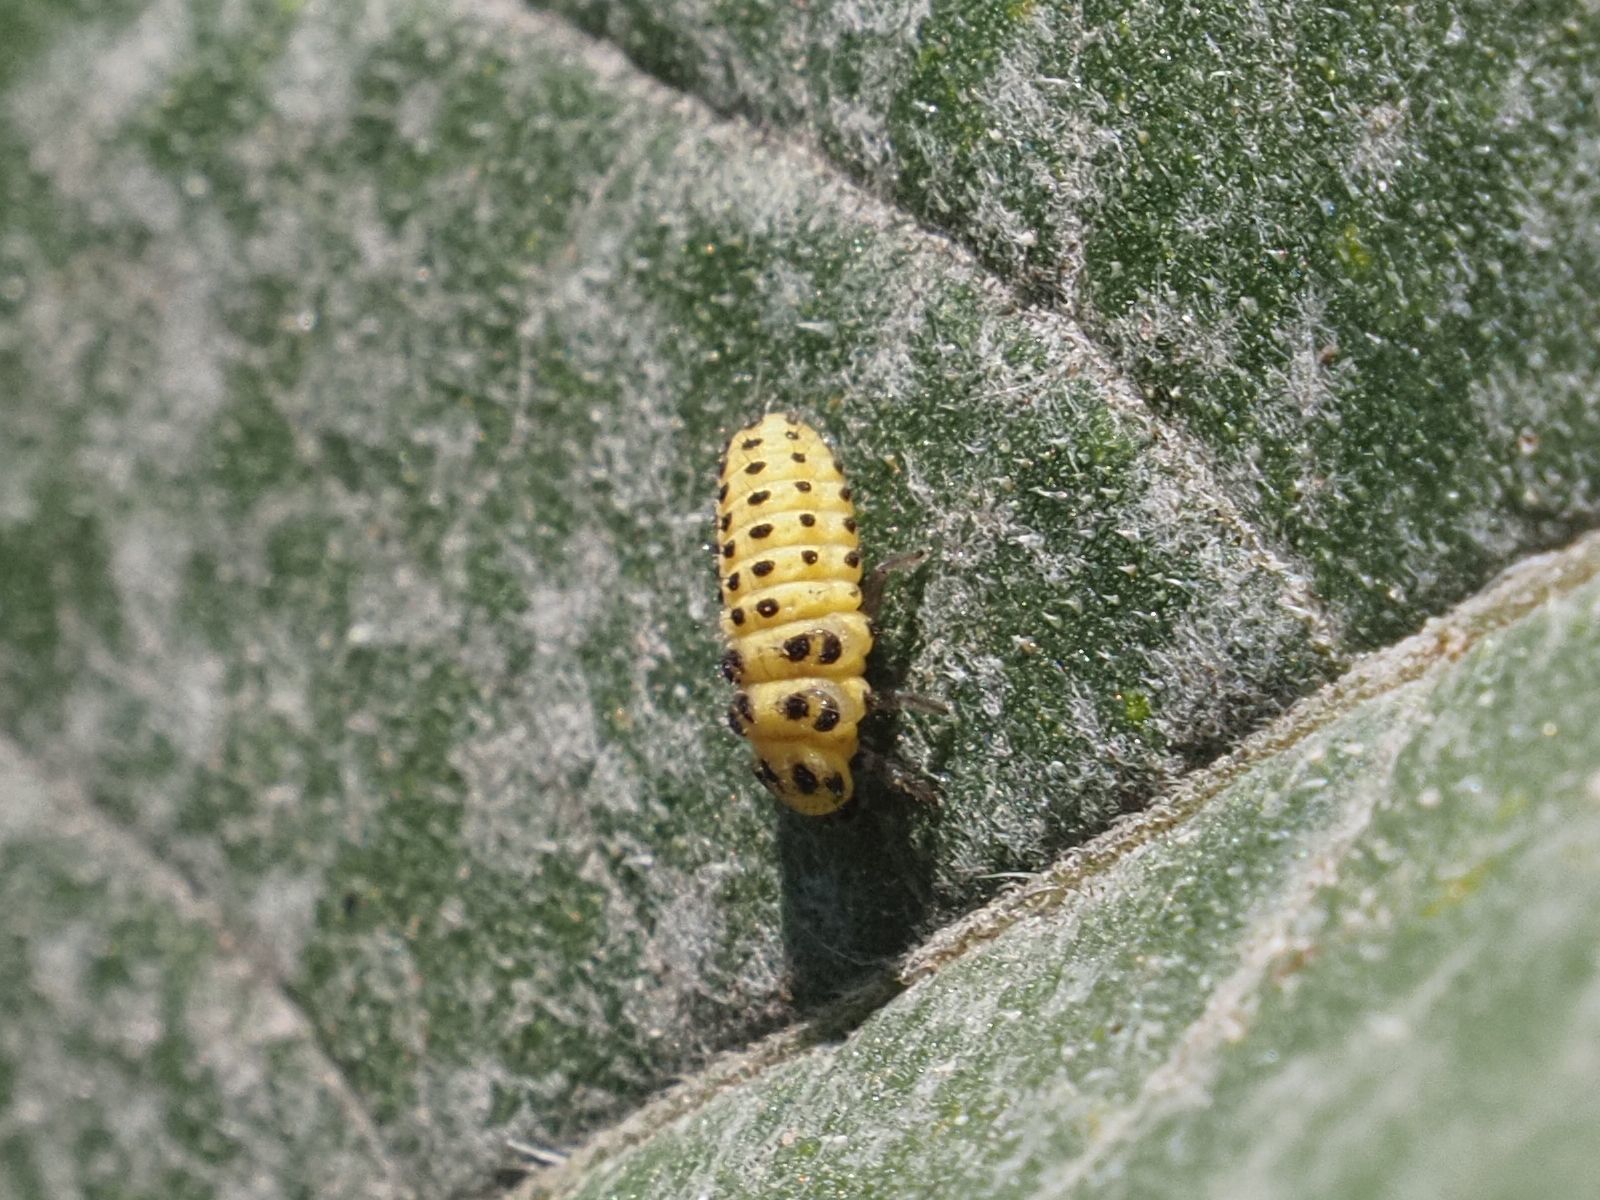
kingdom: Animalia
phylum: Arthropoda
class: Insecta
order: Coleoptera
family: Coccinellidae
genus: Psyllobora
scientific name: Psyllobora vigintiduopunctata
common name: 22-spot ladybird
